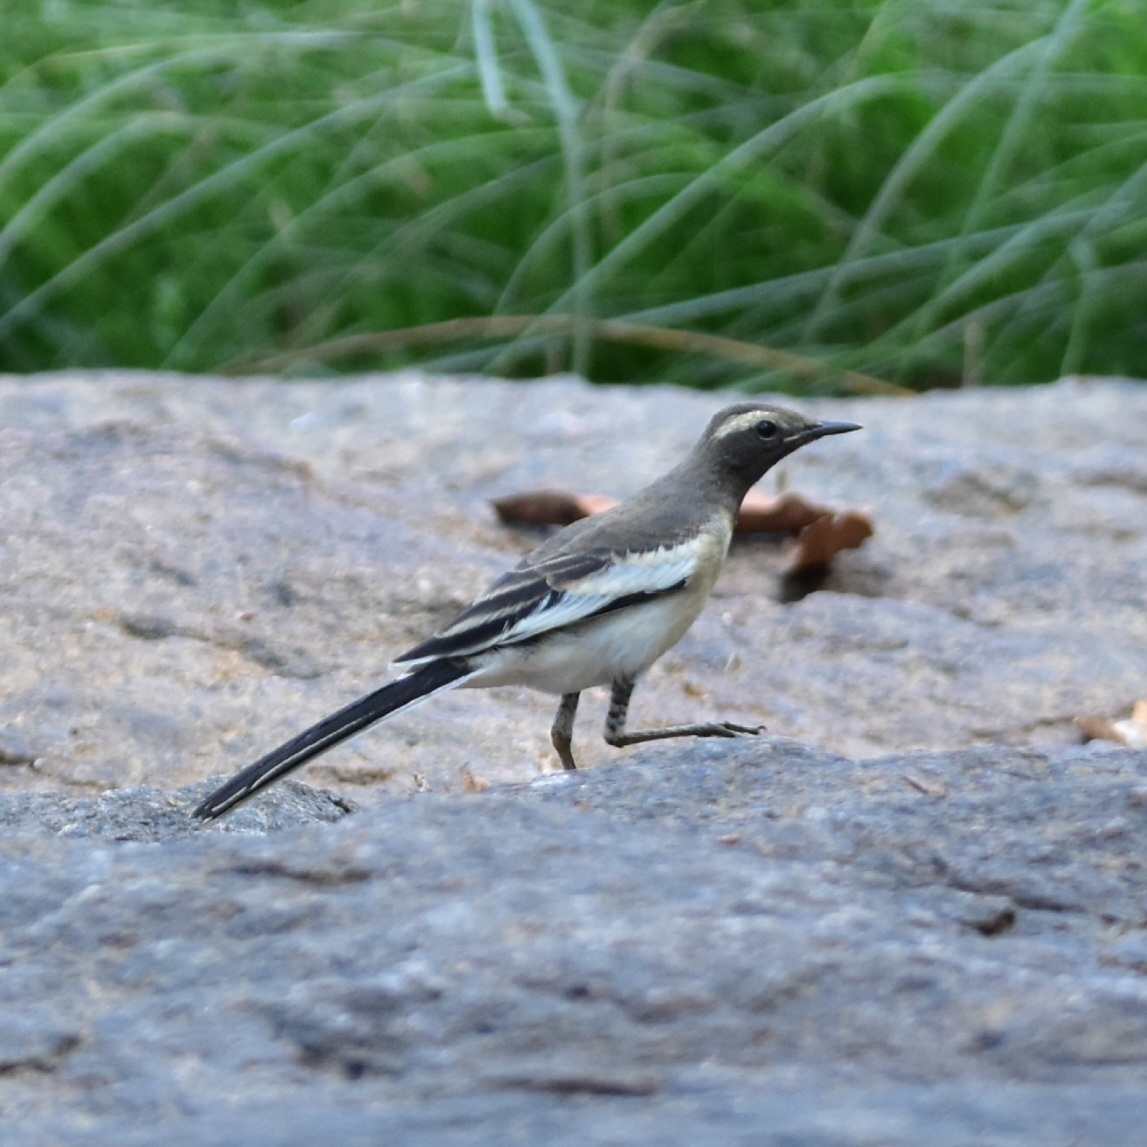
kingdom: Animalia
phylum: Chordata
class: Aves
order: Passeriformes
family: Motacillidae
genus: Motacilla
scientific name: Motacilla maderaspatensis
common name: White-browed wagtail
